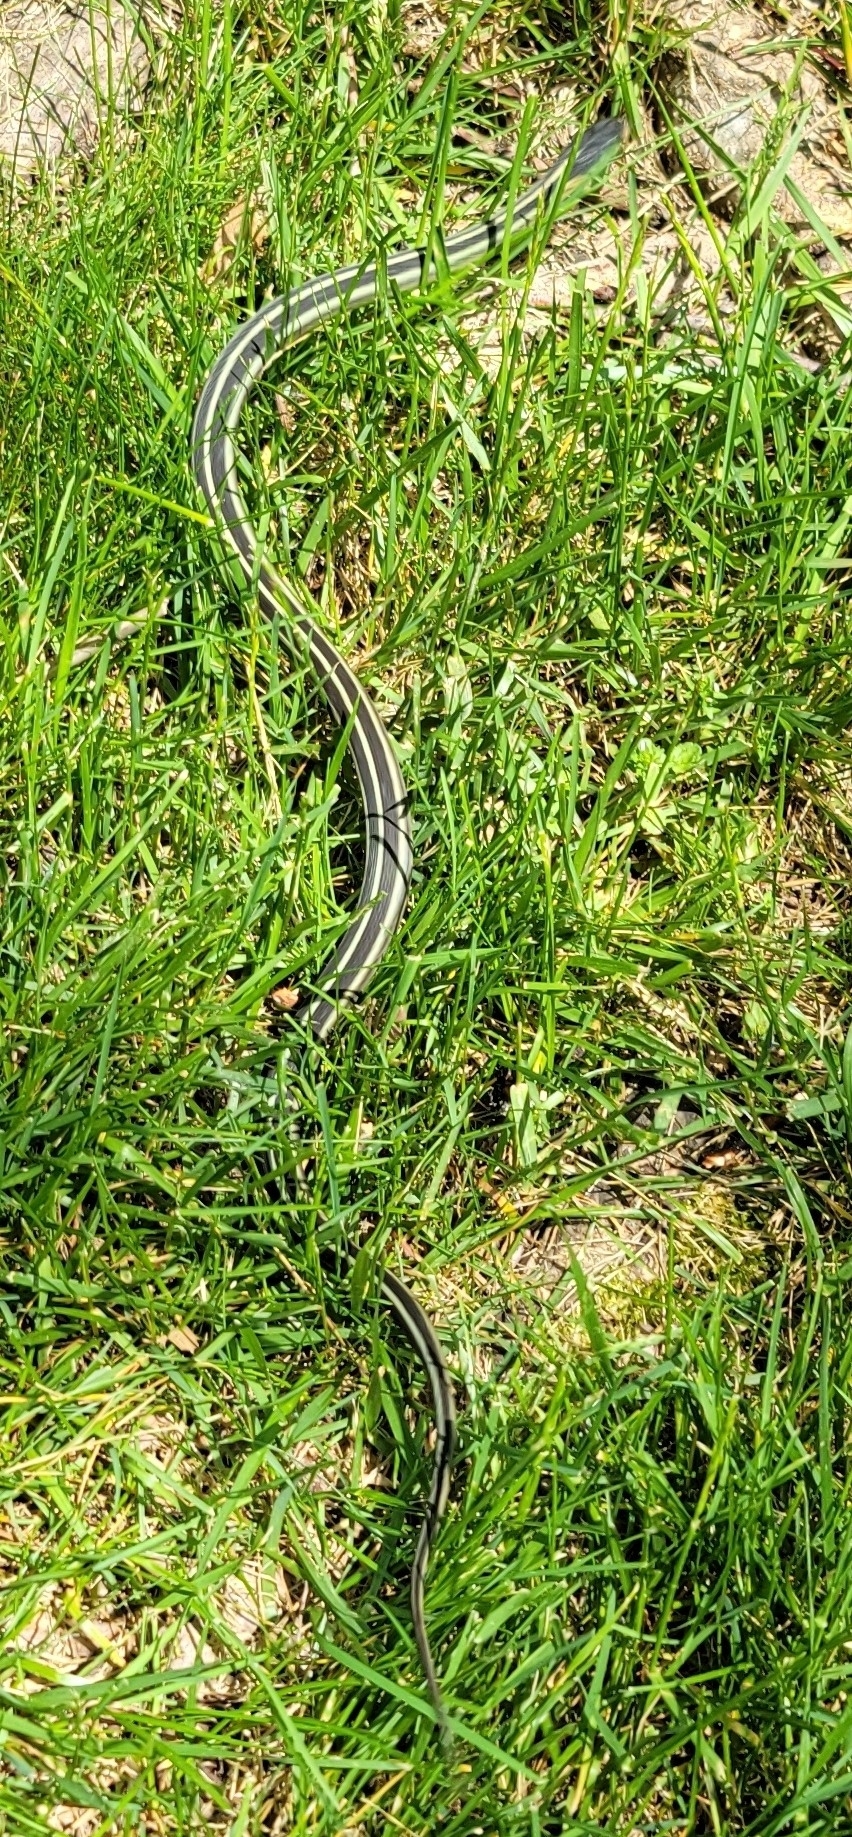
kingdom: Animalia
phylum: Chordata
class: Squamata
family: Colubridae
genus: Thamnophis
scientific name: Thamnophis sirtalis
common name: Common garter snake
